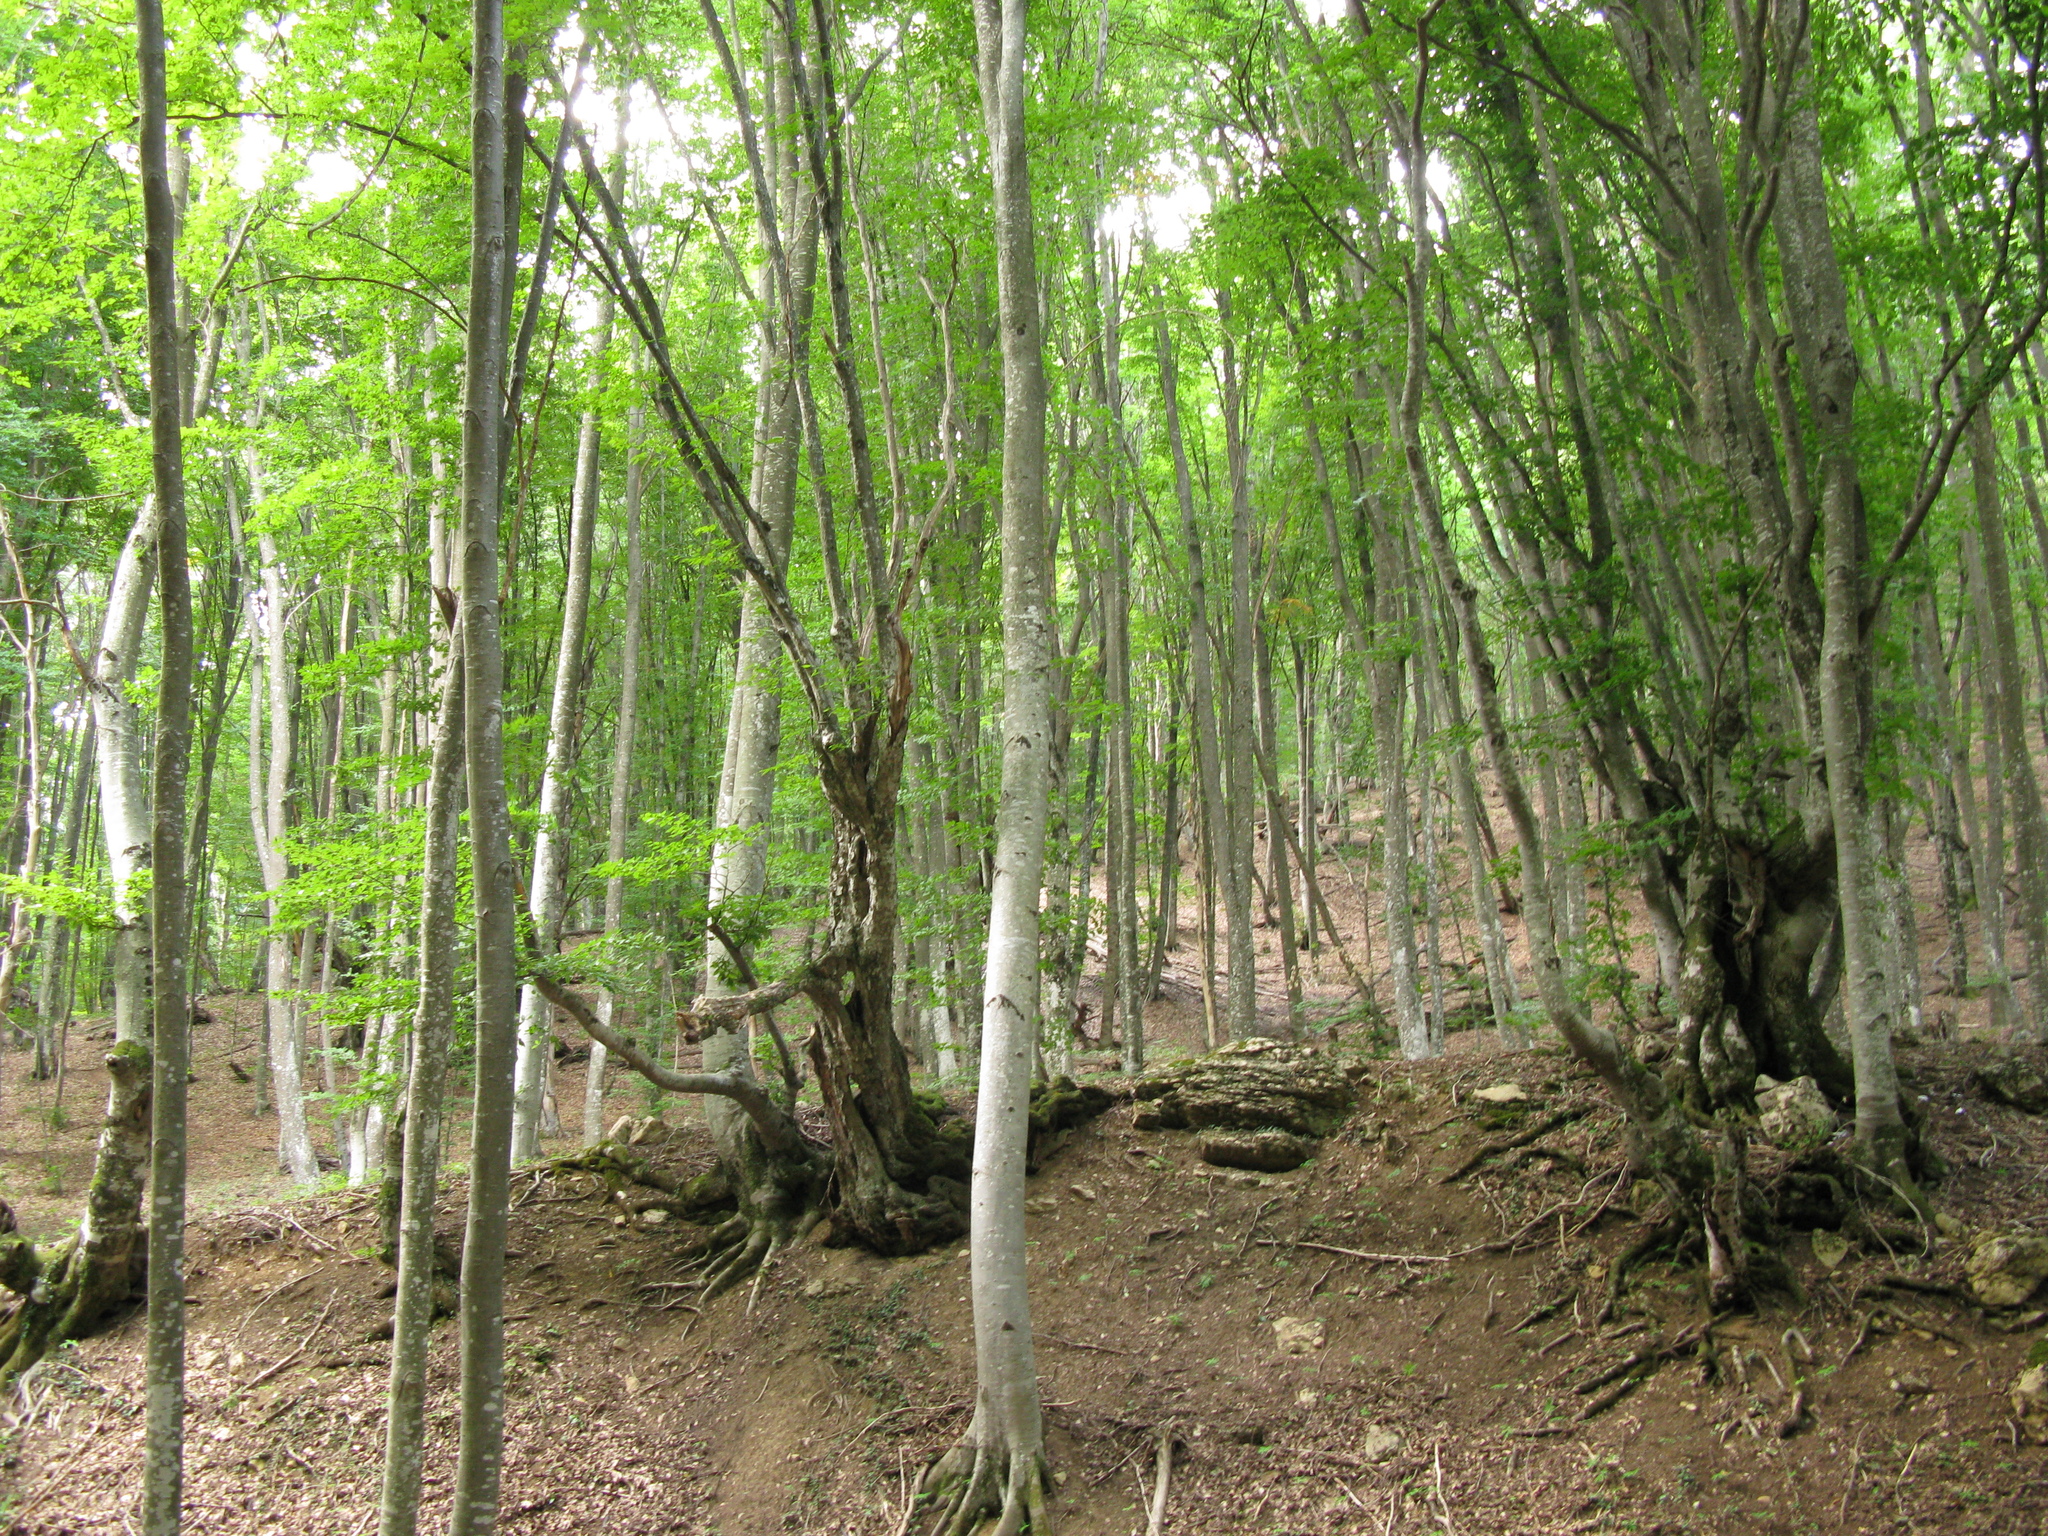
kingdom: Plantae
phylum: Tracheophyta
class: Magnoliopsida
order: Fagales
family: Fagaceae
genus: Fagus
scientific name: Fagus taurica
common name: Crimean beech
